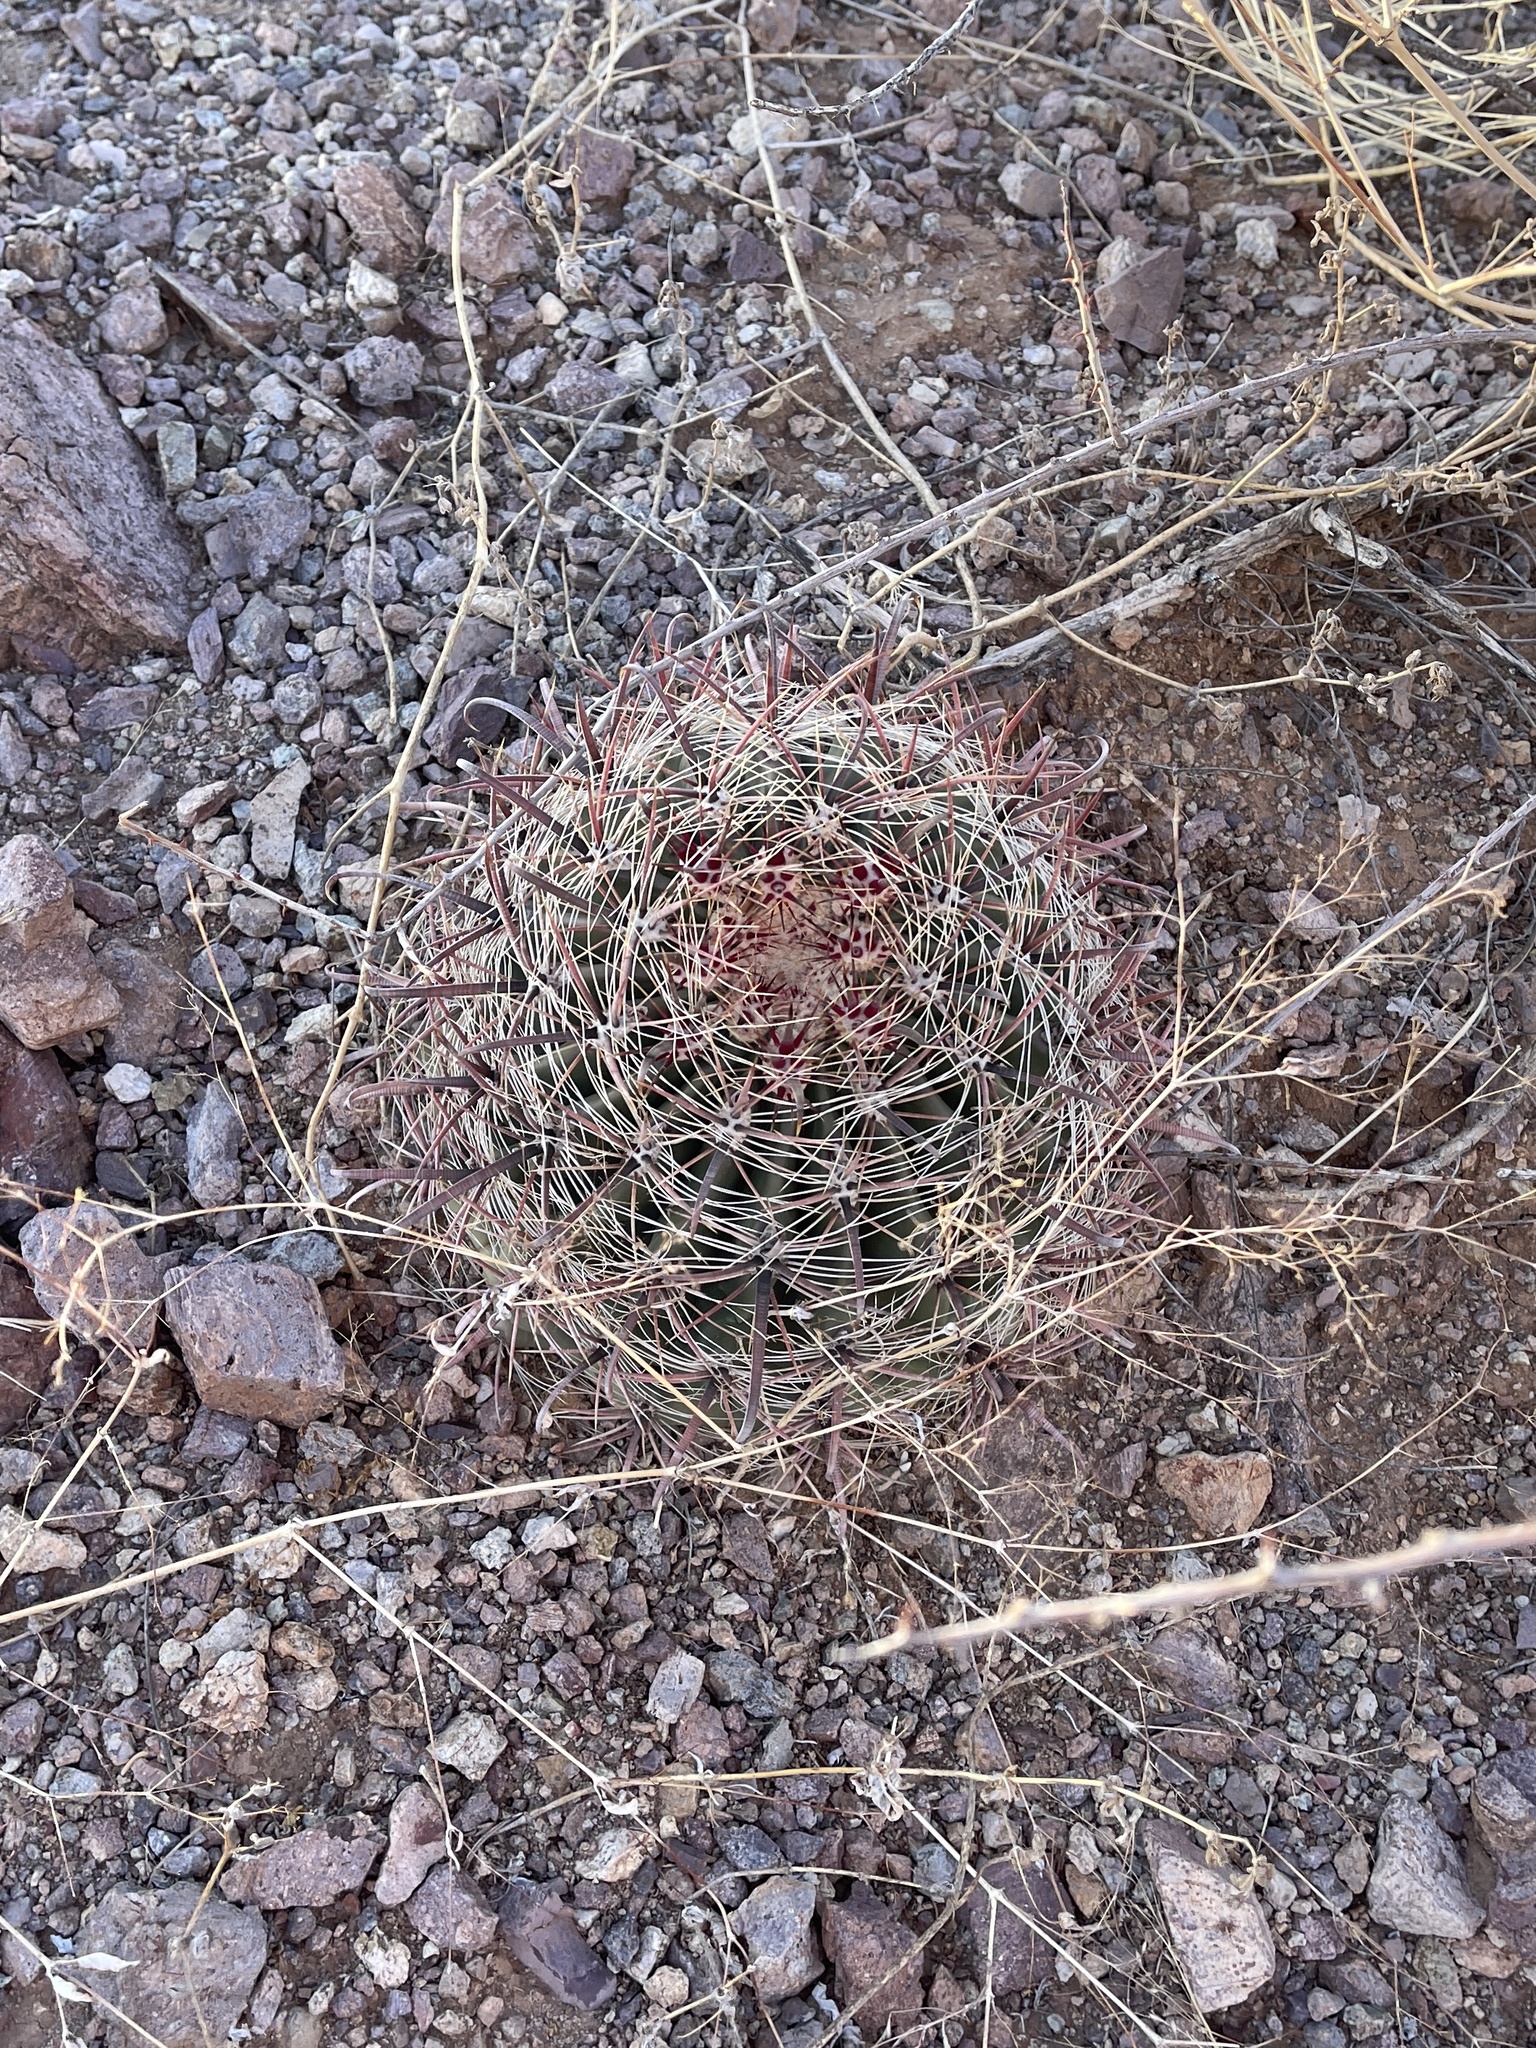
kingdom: Plantae
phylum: Tracheophyta
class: Magnoliopsida
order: Caryophyllales
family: Cactaceae
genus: Ferocactus
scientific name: Ferocactus wislizeni
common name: Candy barrel cactus
